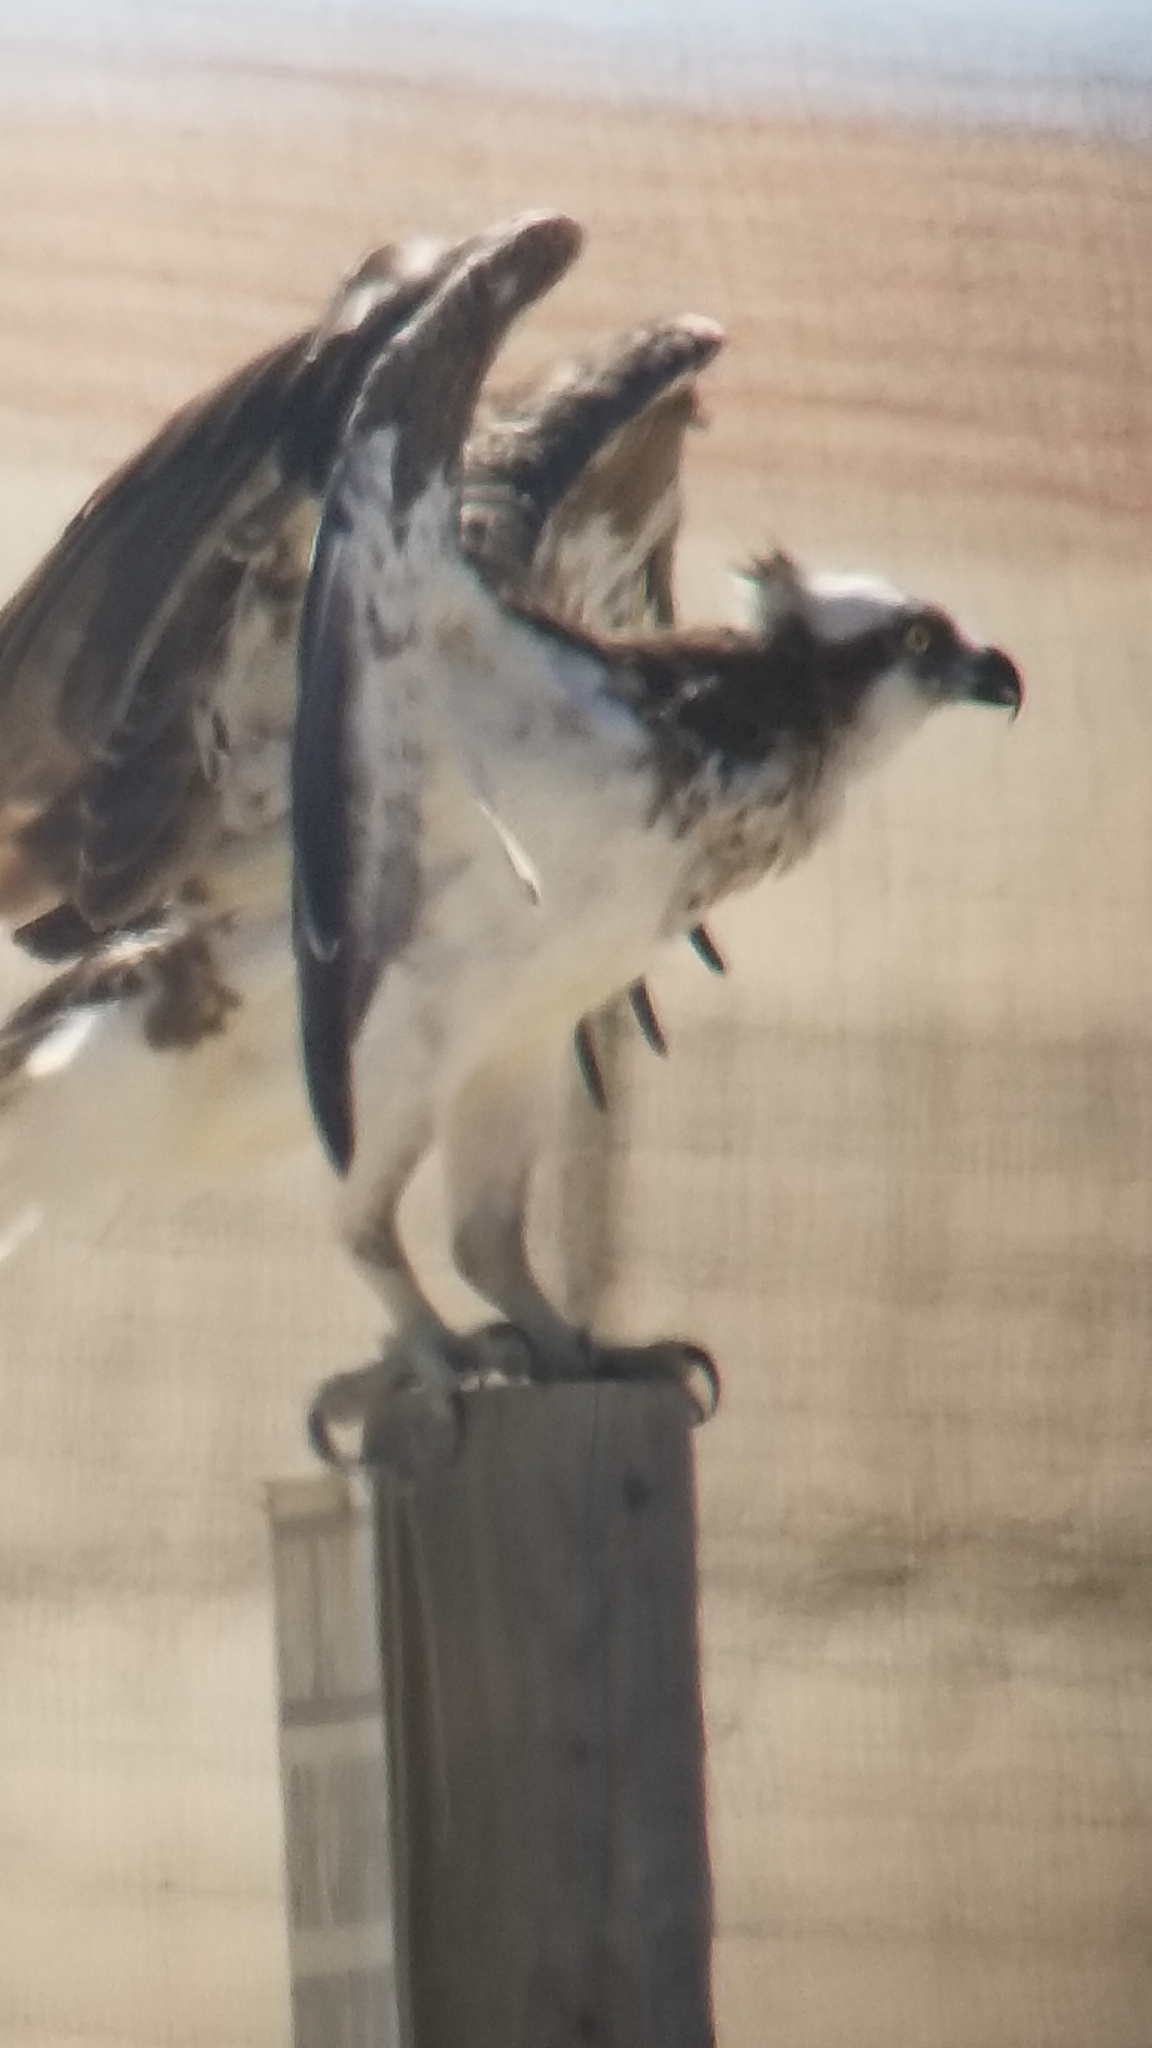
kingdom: Animalia
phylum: Chordata
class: Aves
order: Accipitriformes
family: Pandionidae
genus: Pandion
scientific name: Pandion haliaetus
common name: Osprey
